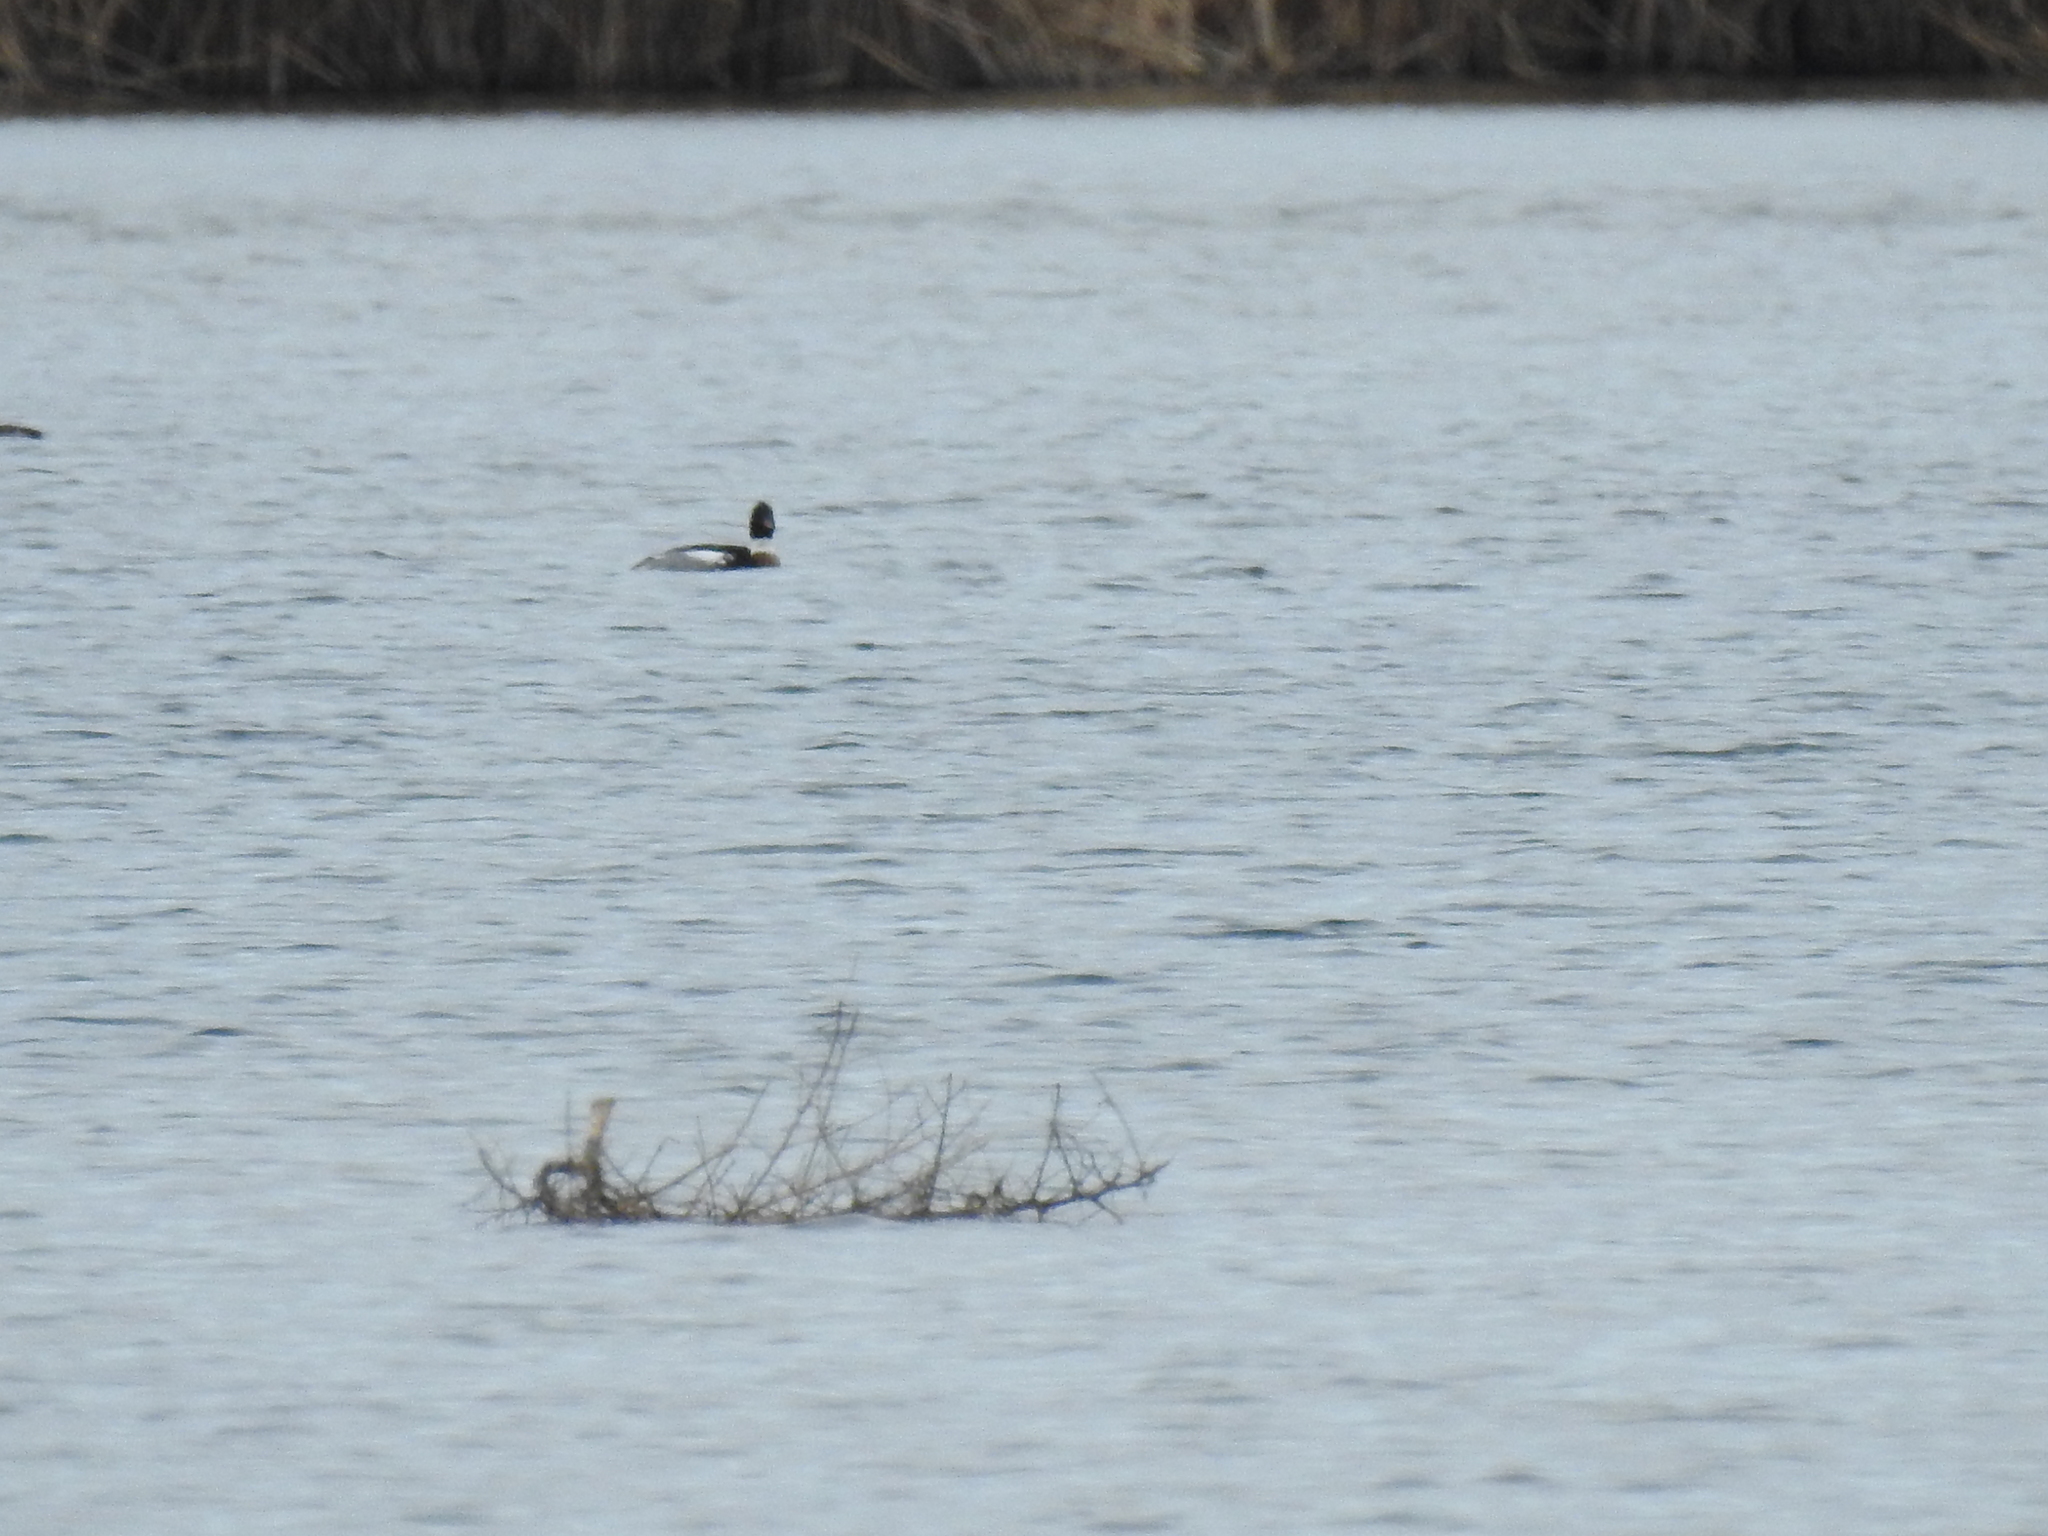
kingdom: Animalia
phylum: Chordata
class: Aves
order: Anseriformes
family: Anatidae
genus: Mergus
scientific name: Mergus serrator
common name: Red-breasted merganser
